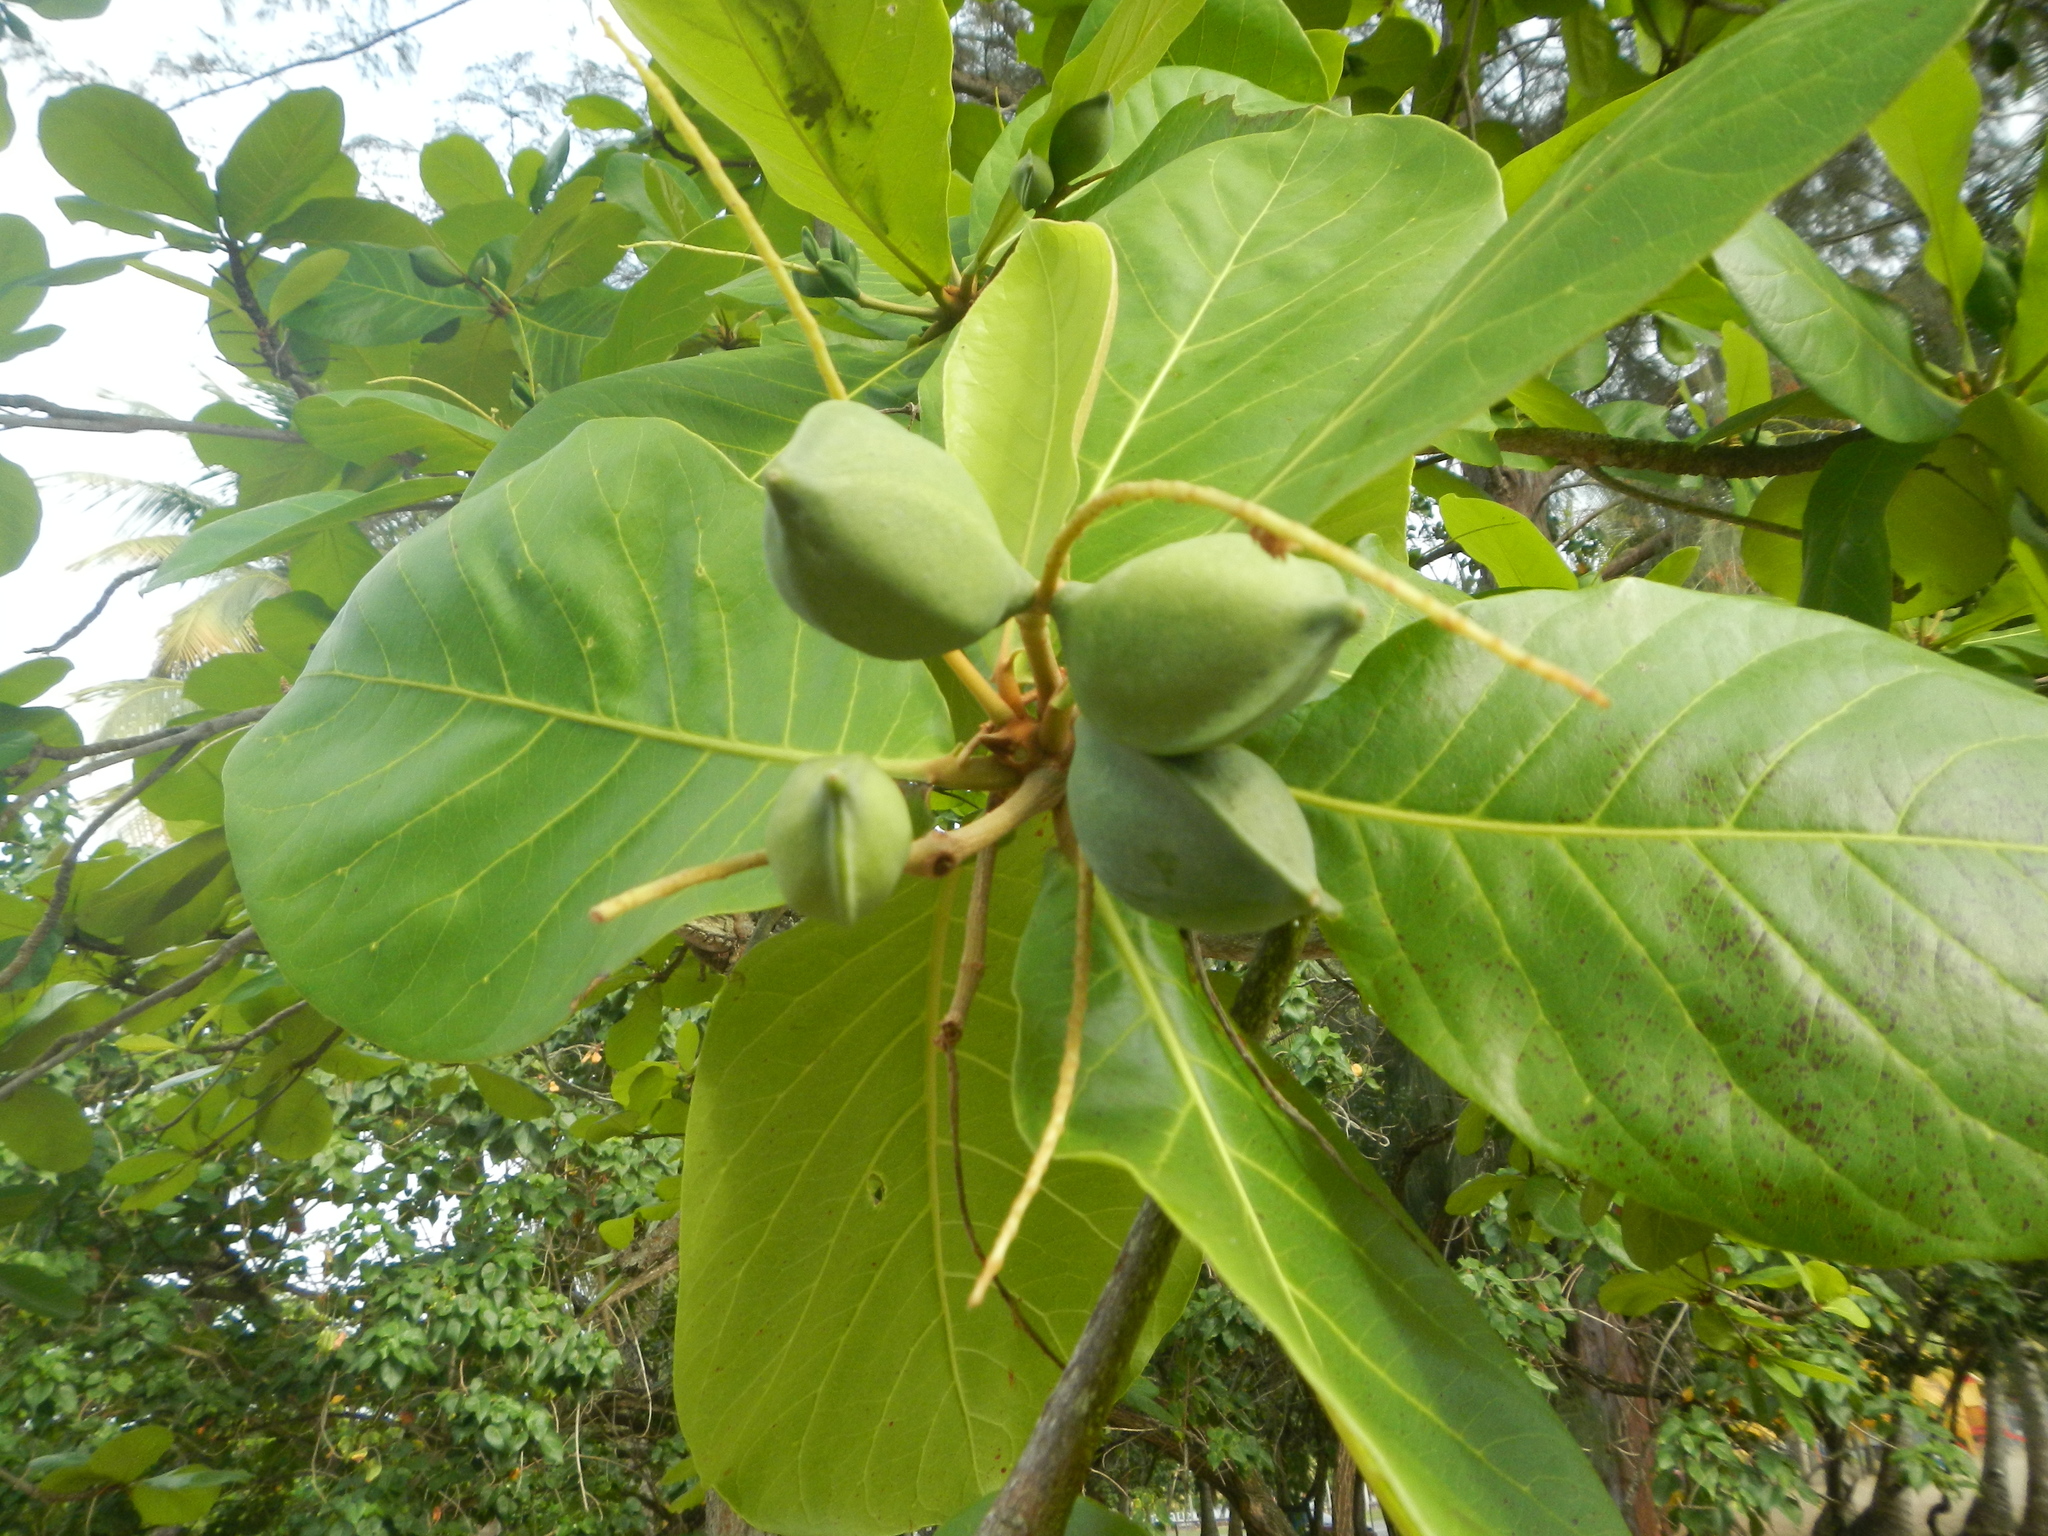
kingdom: Plantae
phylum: Tracheophyta
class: Magnoliopsida
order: Myrtales
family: Combretaceae
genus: Terminalia
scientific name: Terminalia catappa
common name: Tropical almond
